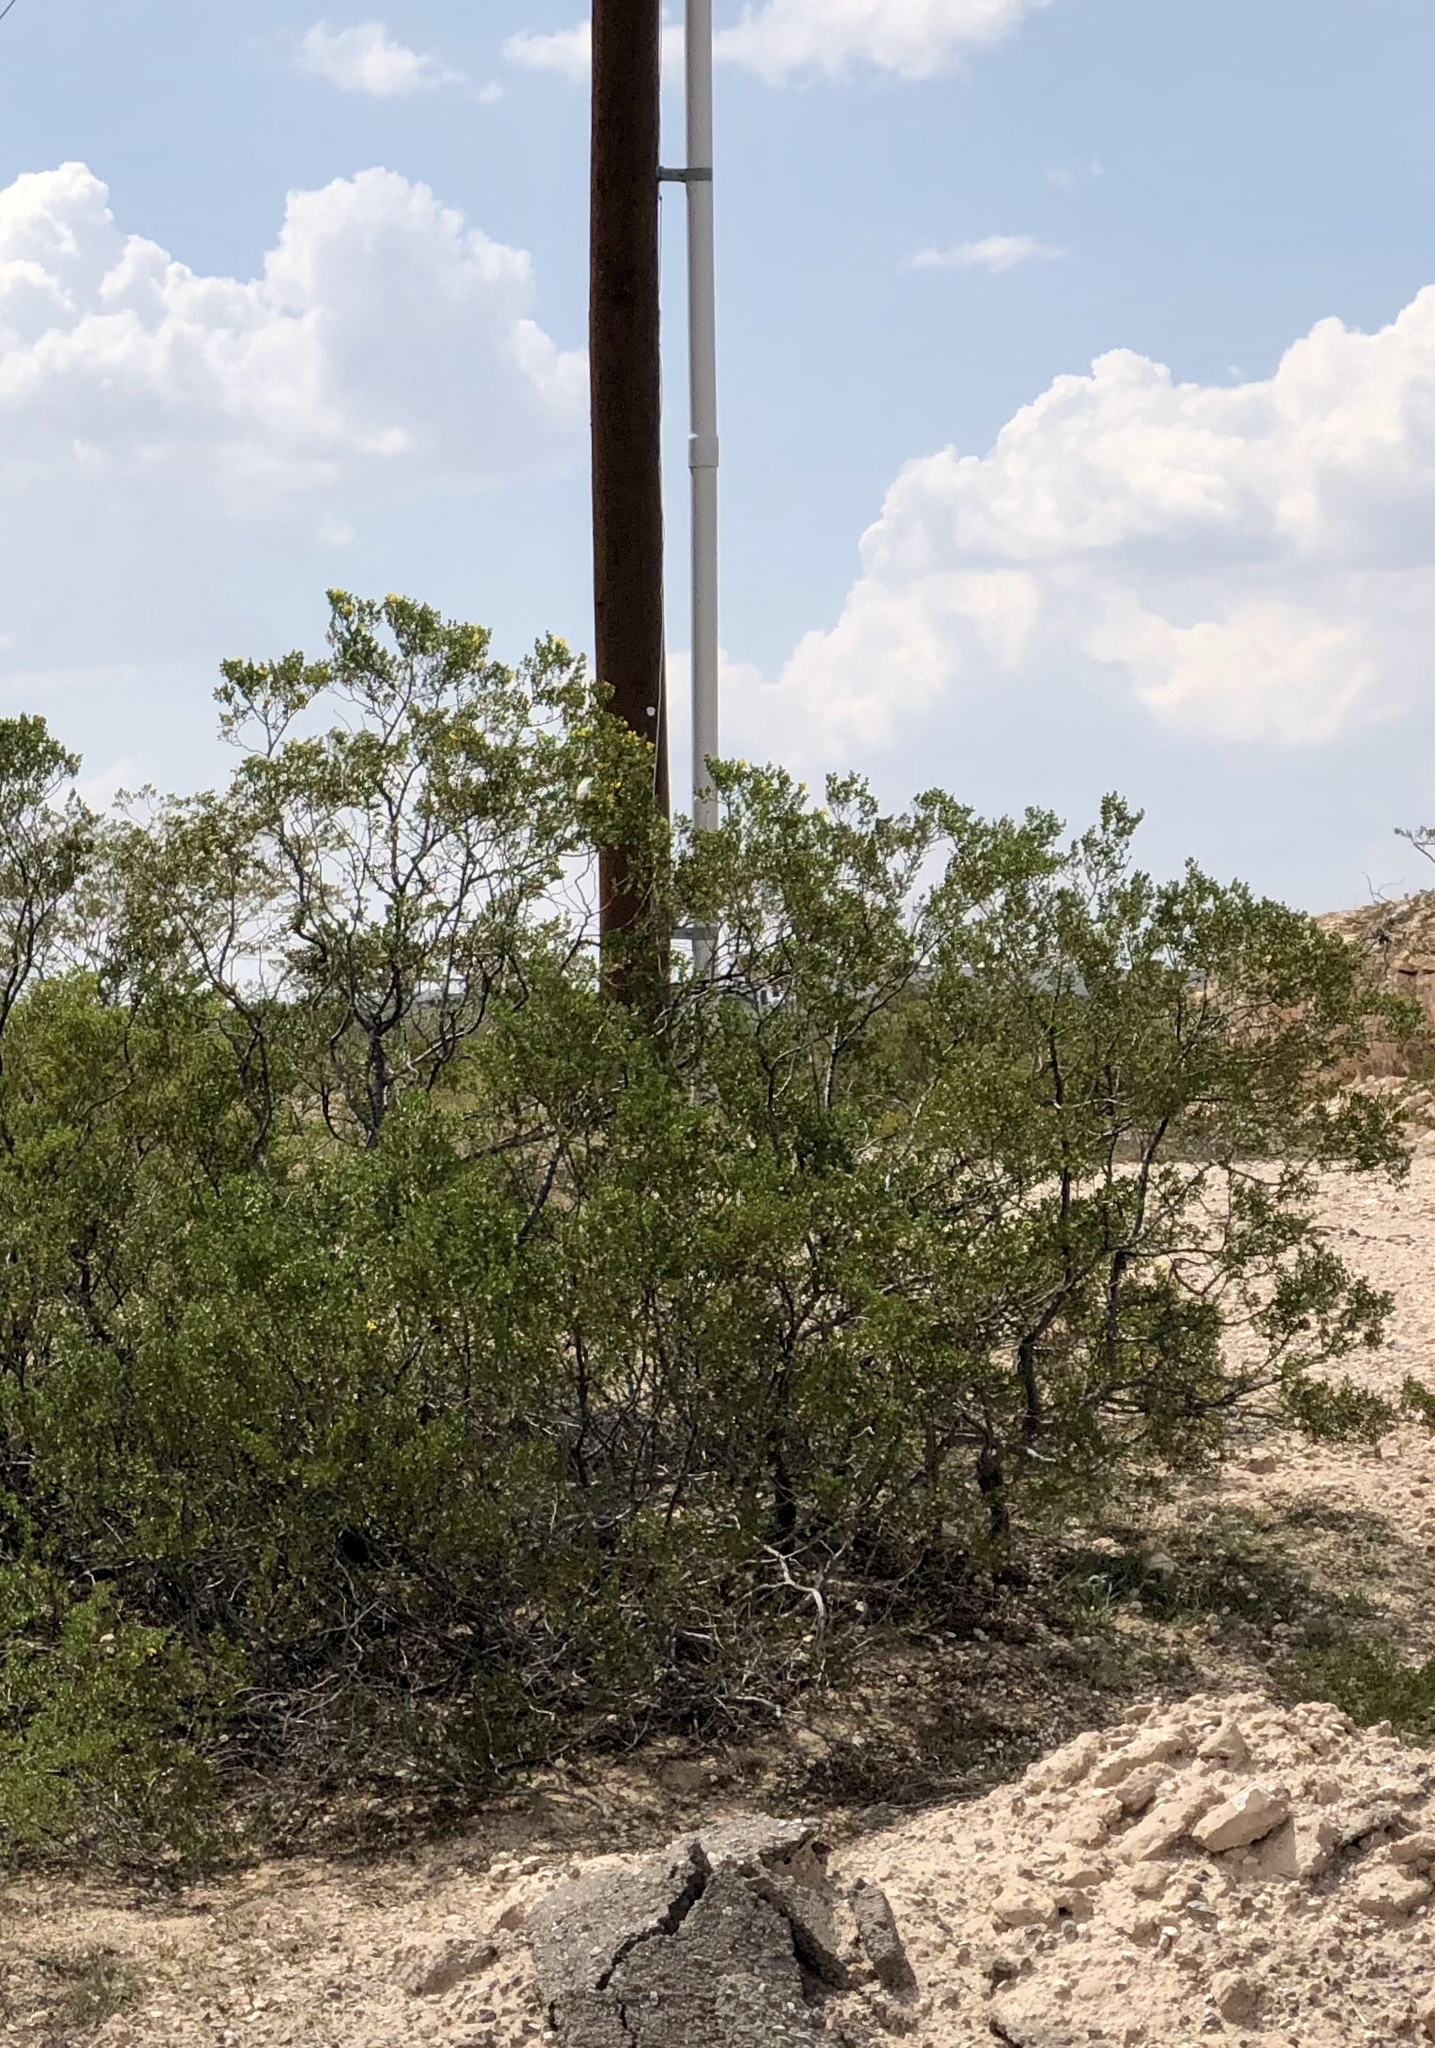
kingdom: Plantae
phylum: Tracheophyta
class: Magnoliopsida
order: Zygophyllales
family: Zygophyllaceae
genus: Larrea
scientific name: Larrea tridentata
